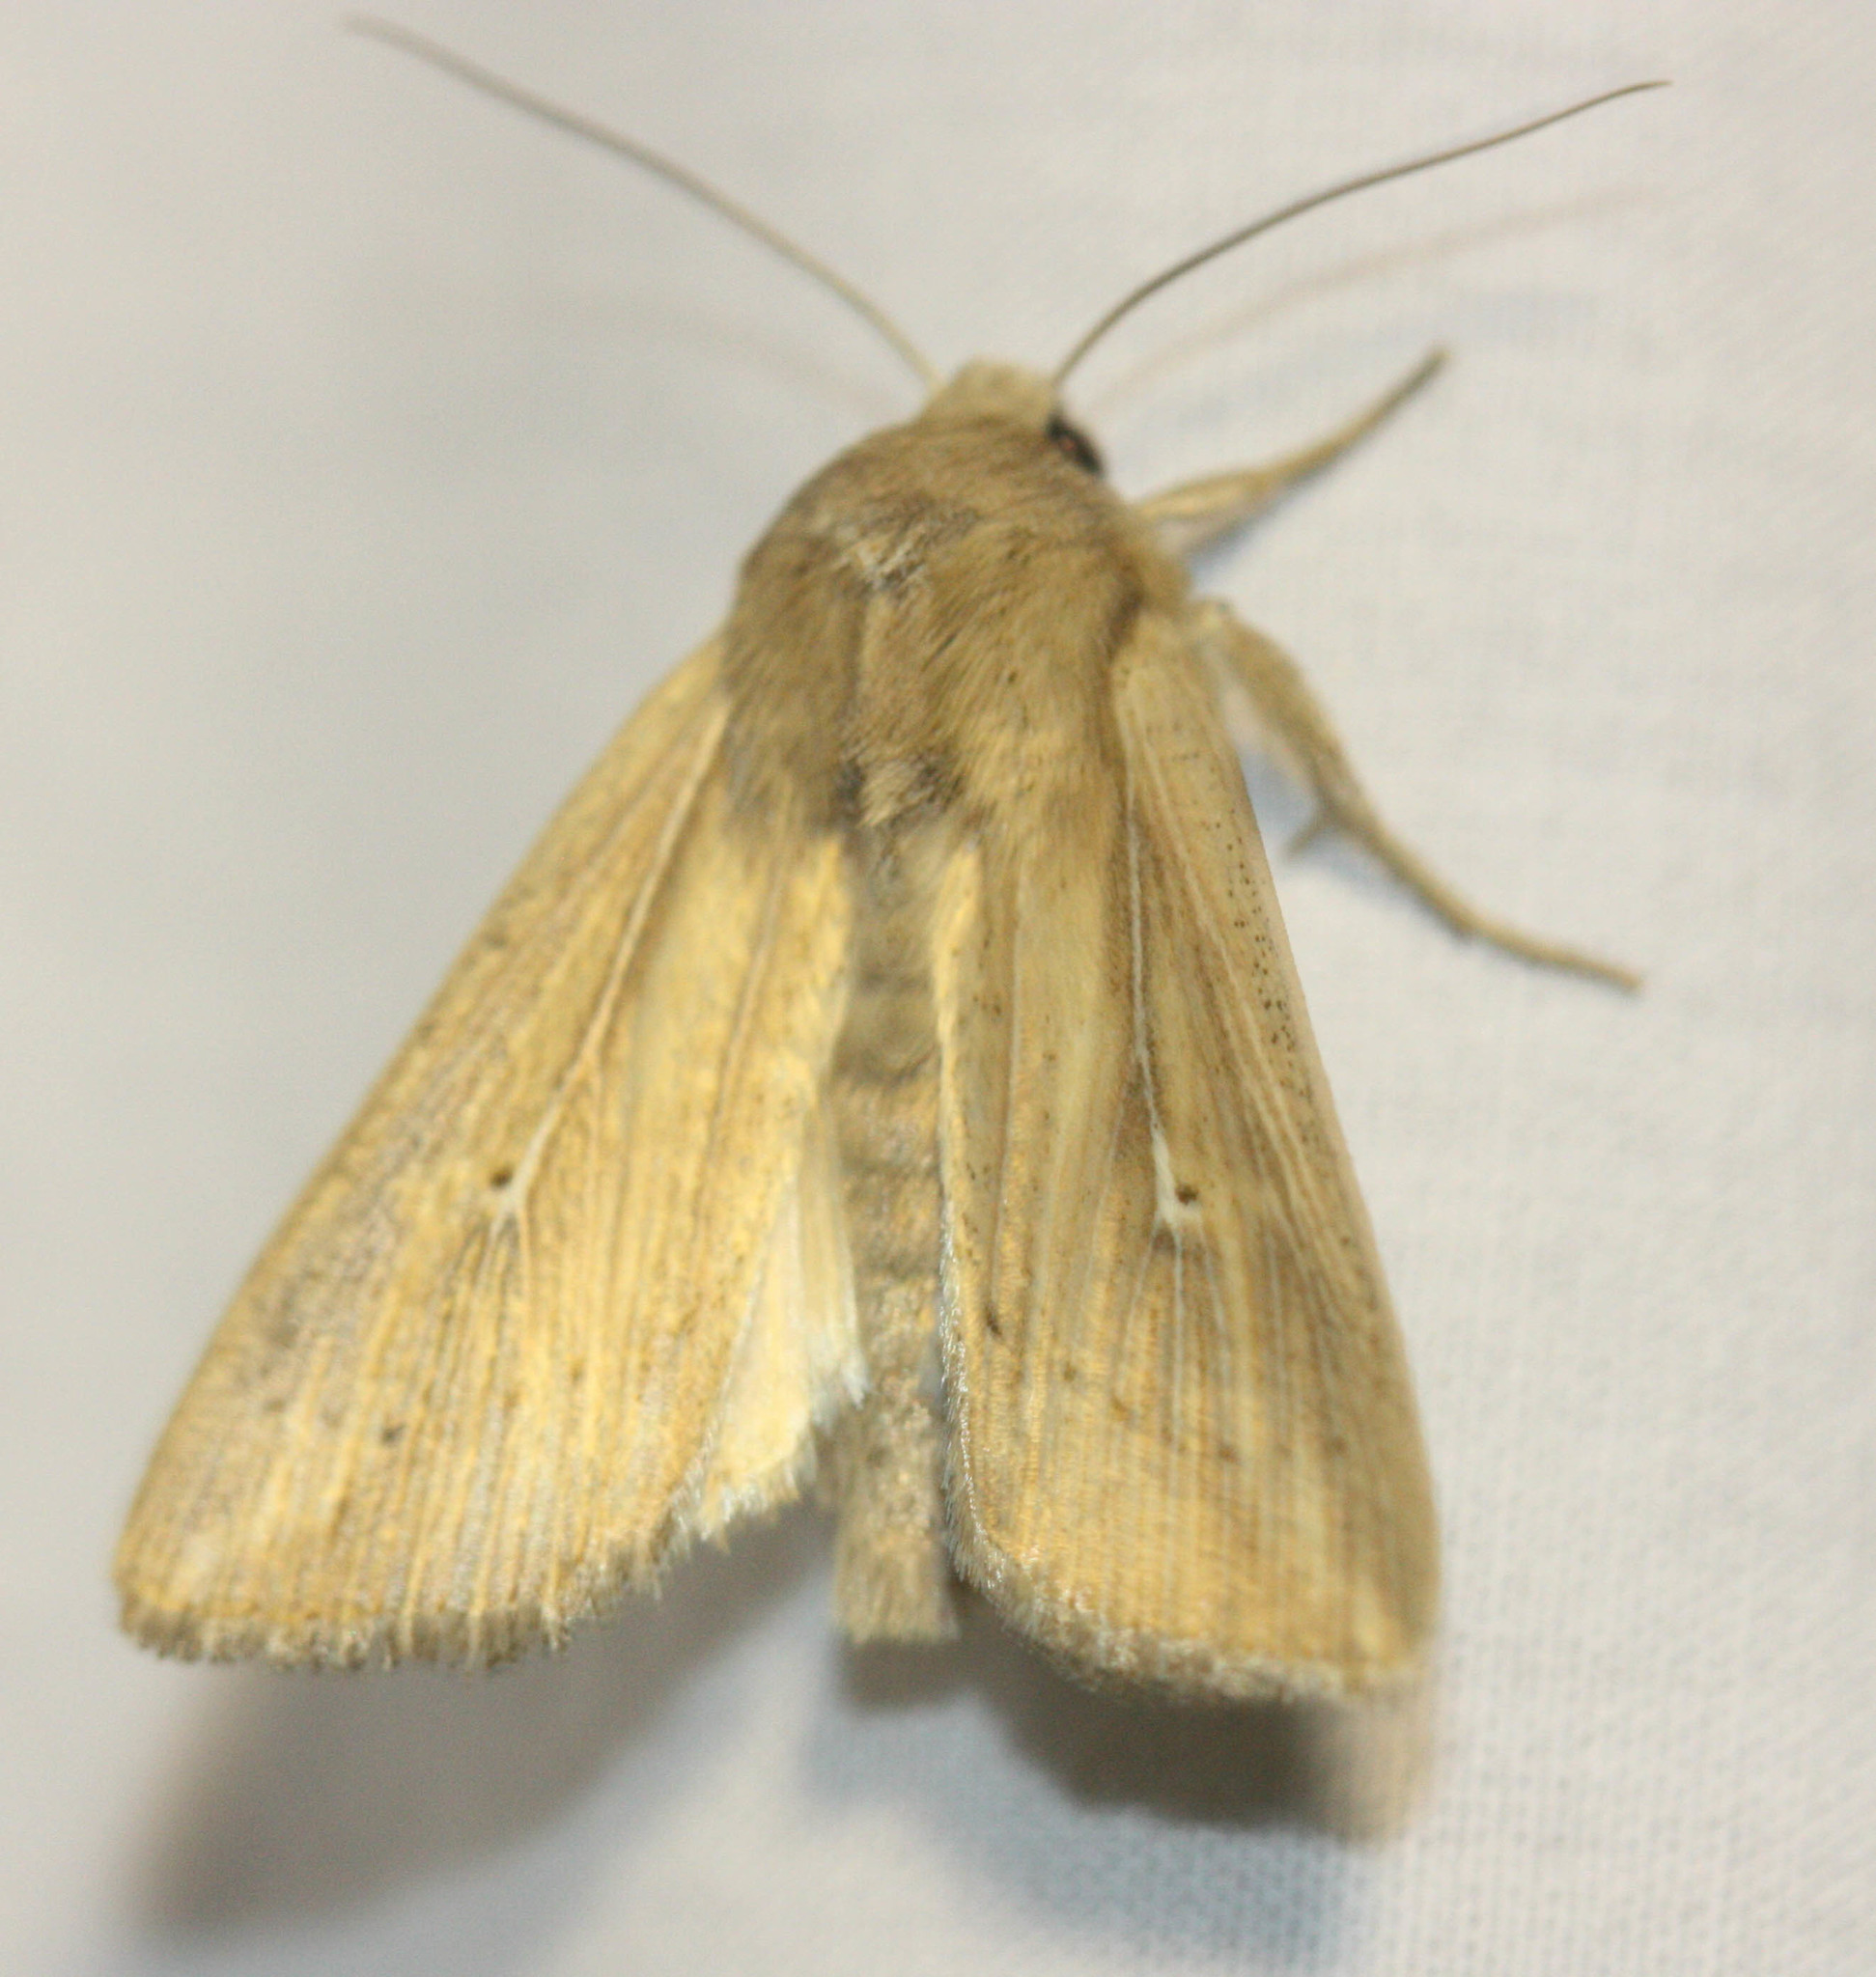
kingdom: Animalia
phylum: Arthropoda
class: Insecta
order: Lepidoptera
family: Noctuidae
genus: Mythimna
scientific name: Mythimna unipuncta
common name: White-speck
